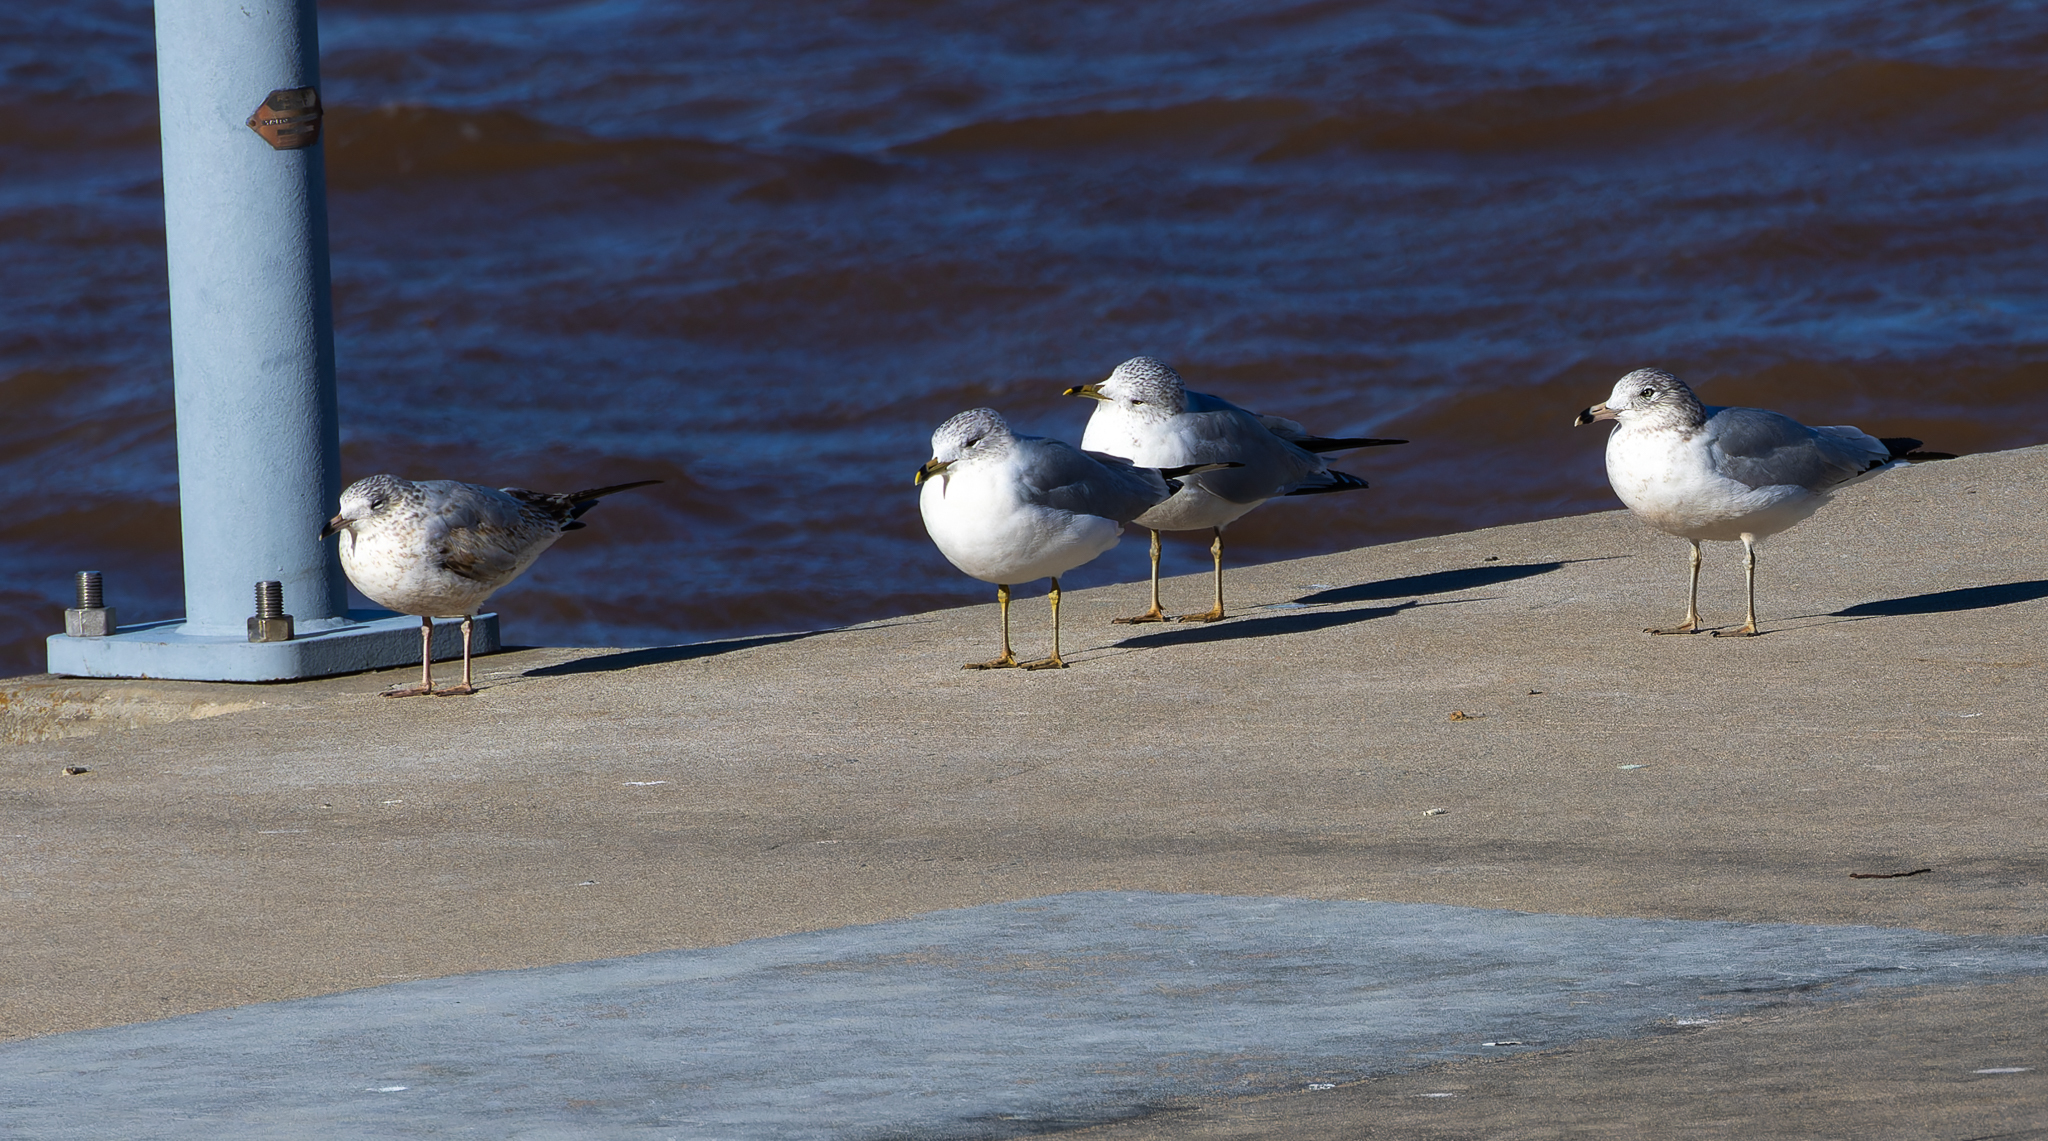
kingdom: Animalia
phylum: Chordata
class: Aves
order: Charadriiformes
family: Laridae
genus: Larus
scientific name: Larus delawarensis
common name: Ring-billed gull
